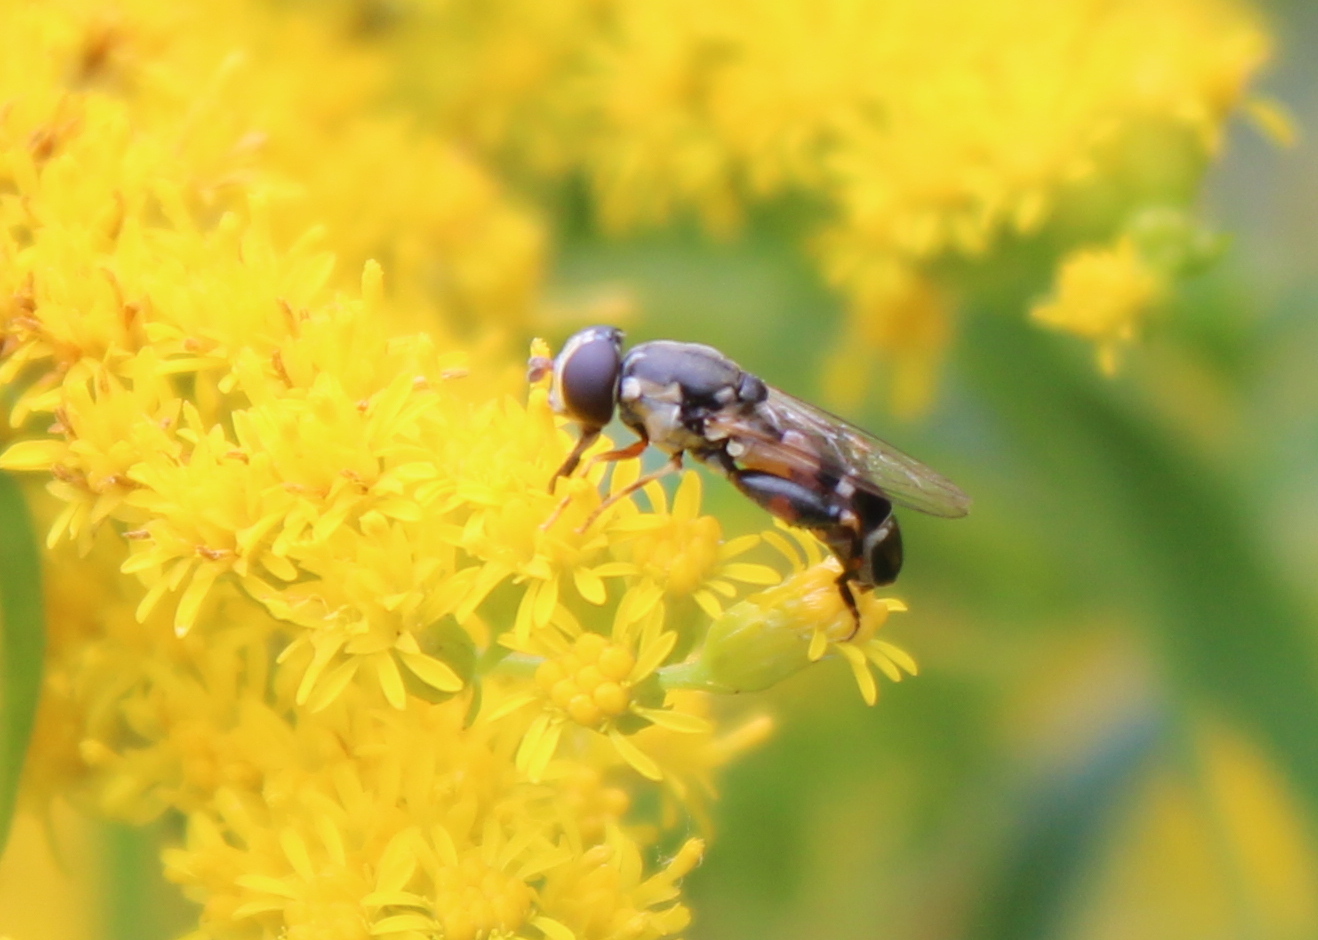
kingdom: Animalia
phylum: Arthropoda
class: Insecta
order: Diptera
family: Syrphidae
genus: Syritta
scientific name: Syritta pipiens
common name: Hover fly
